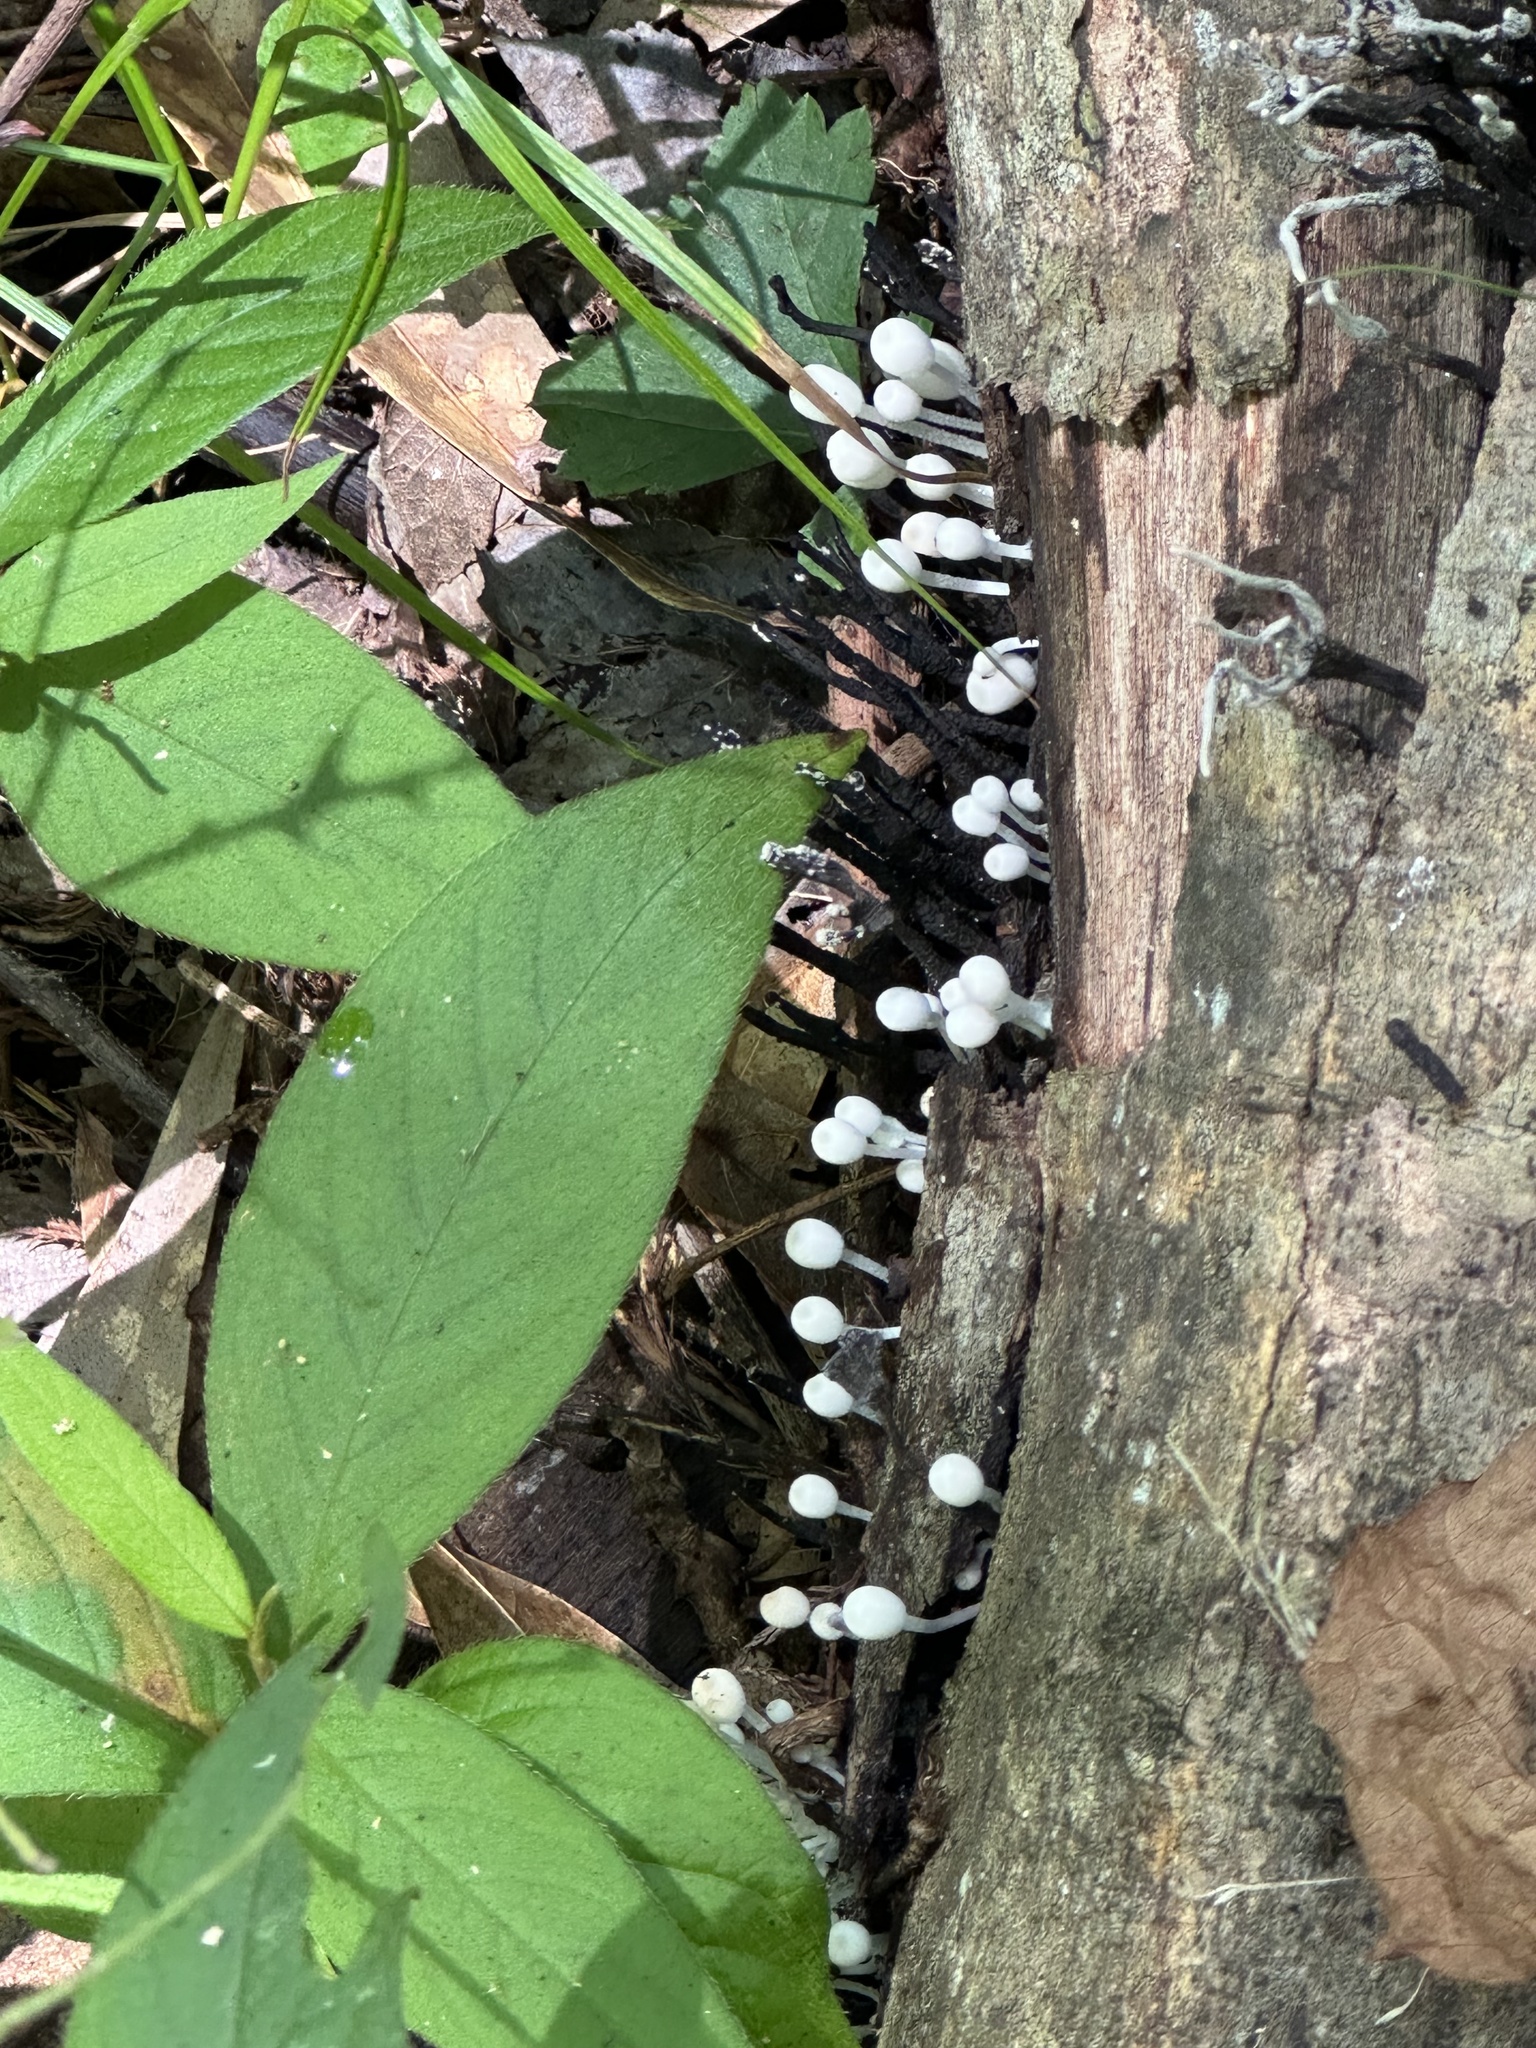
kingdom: Fungi
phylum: Basidiomycota
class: Agaricomycetes
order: Agaricales
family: Psathyrellaceae
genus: Coprinellus
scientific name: Coprinellus disseminatus
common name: Fairies' bonnets
